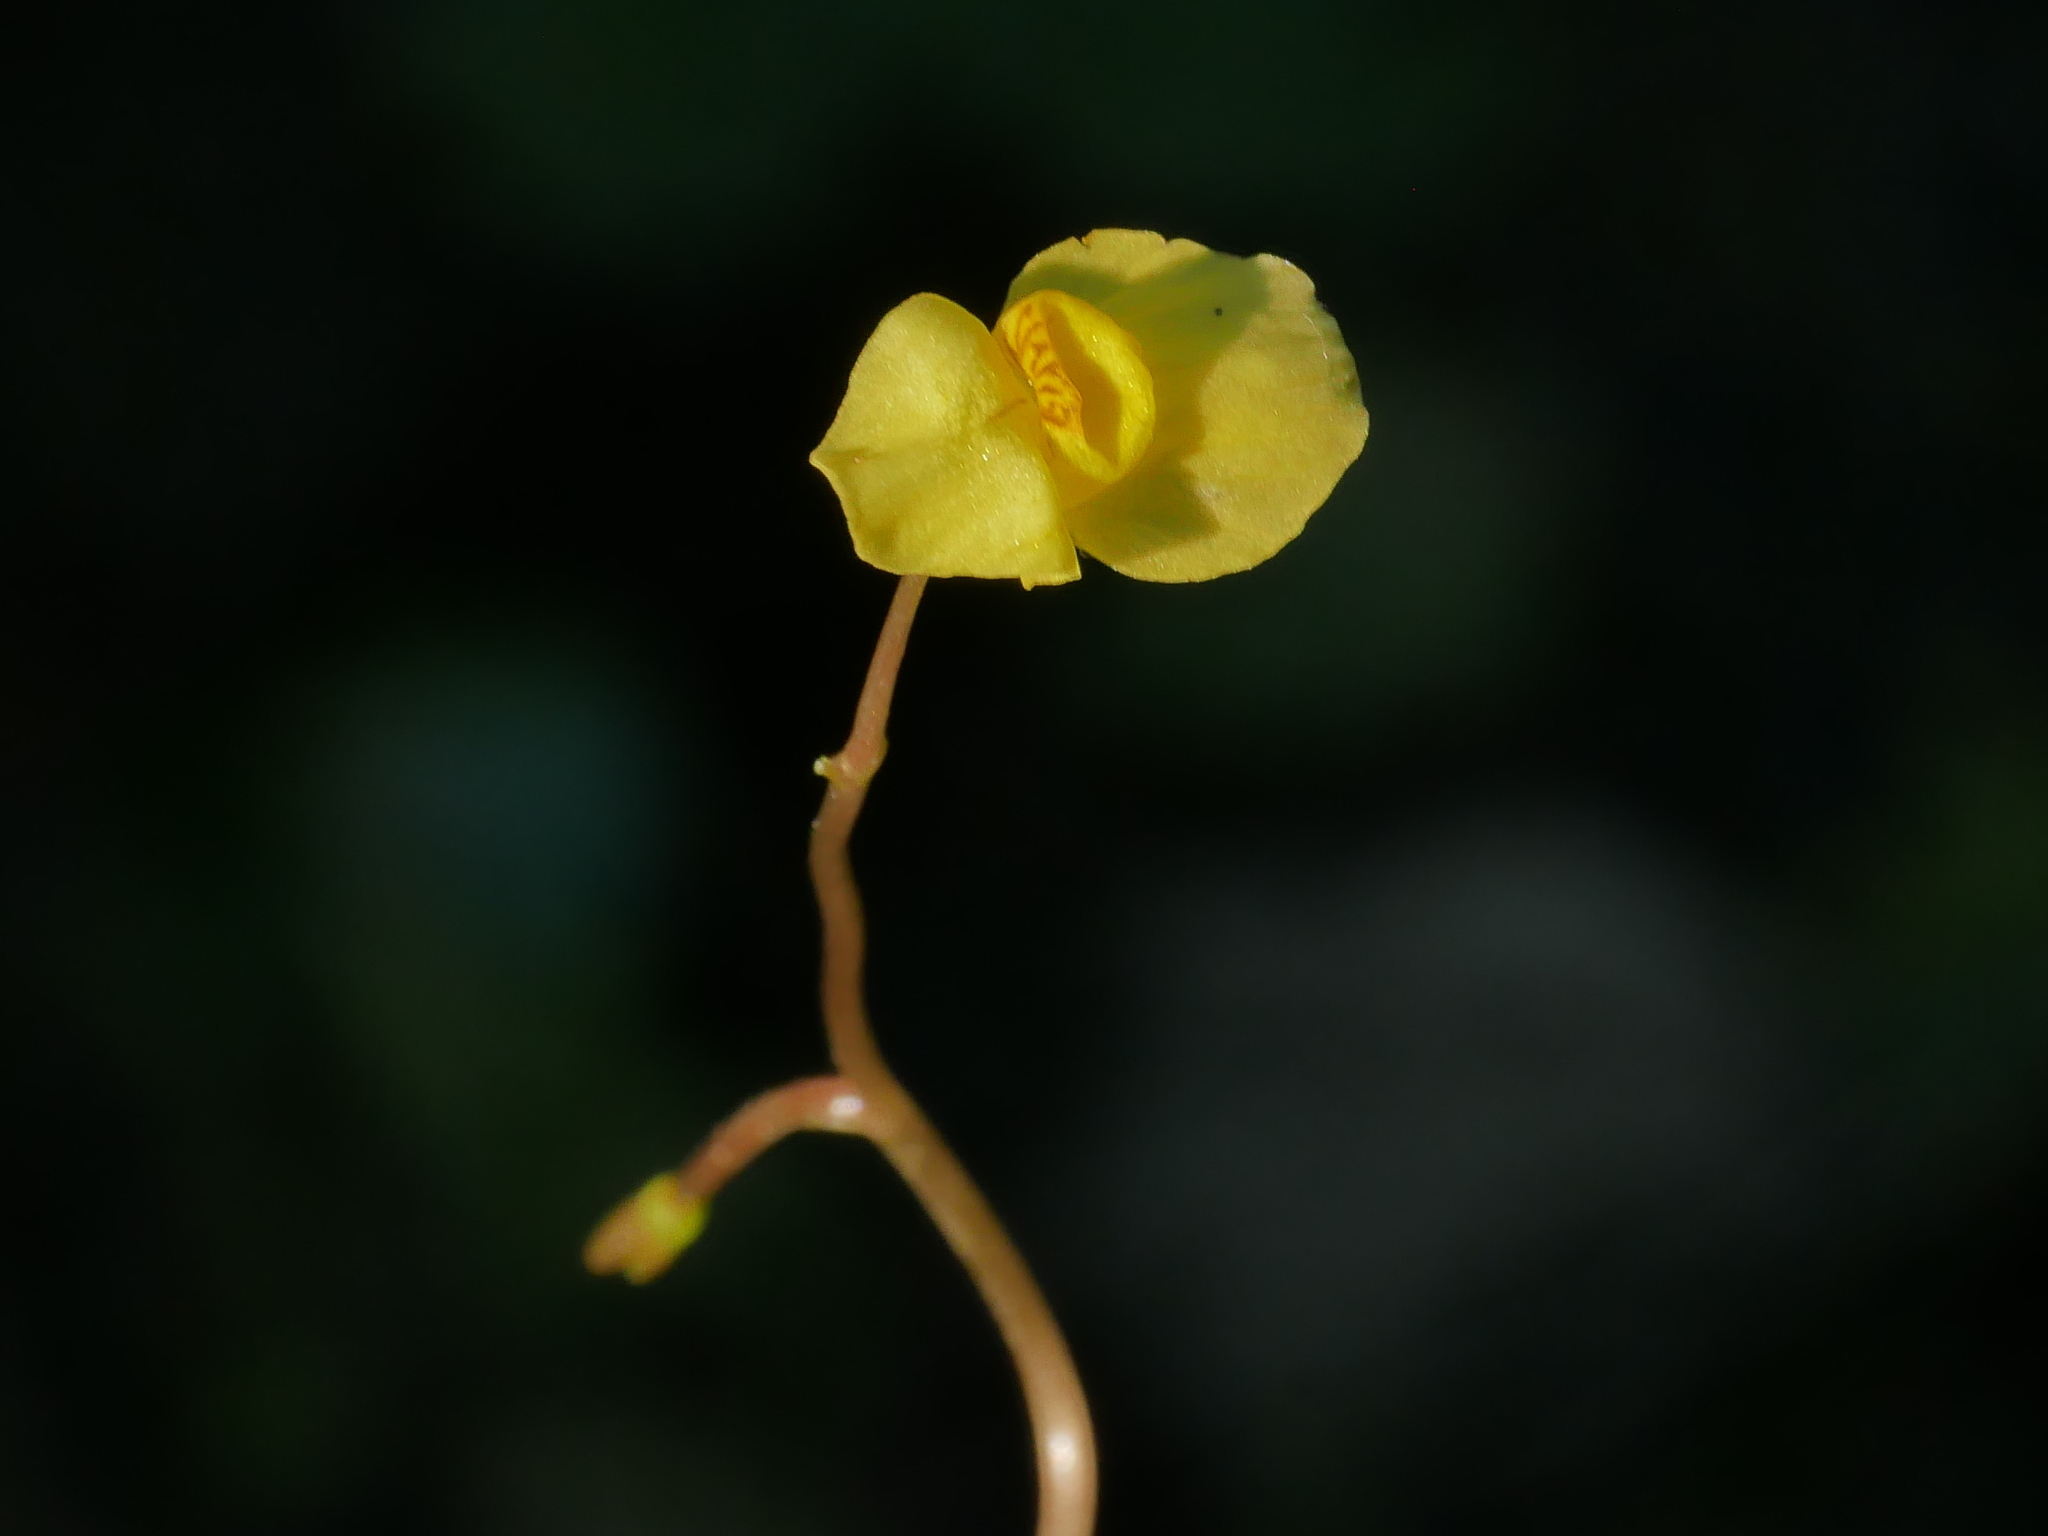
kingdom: Plantae
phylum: Tracheophyta
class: Magnoliopsida
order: Lamiales
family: Lentibulariaceae
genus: Utricularia
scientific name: Utricularia gibba
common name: Humped bladderwort
